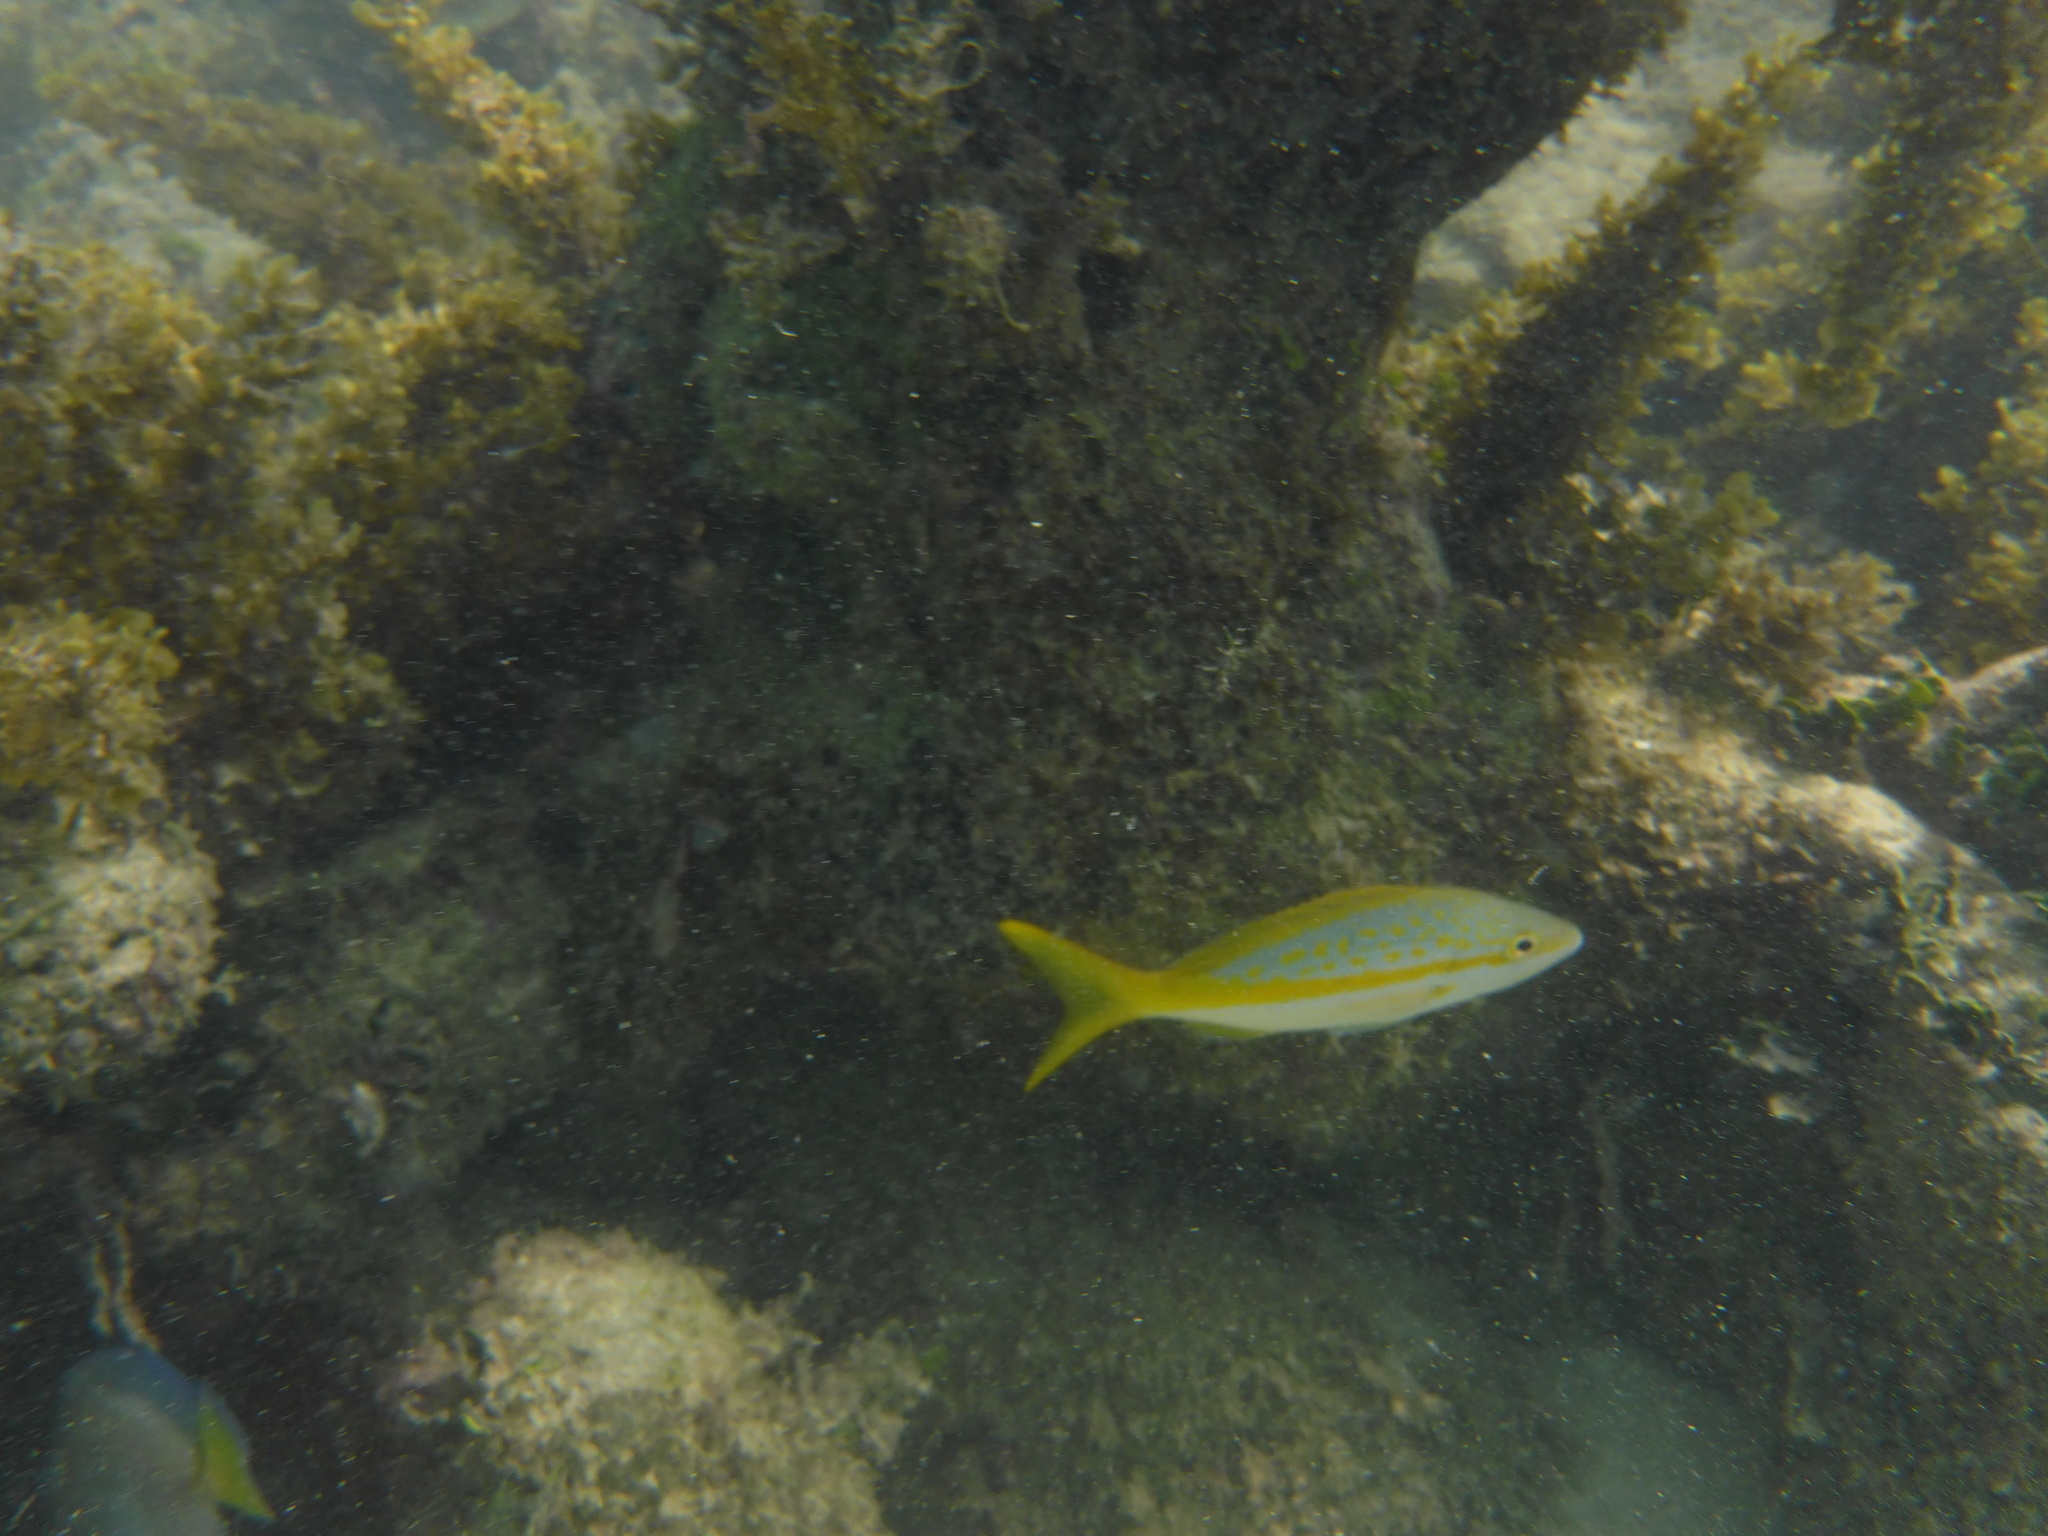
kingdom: Animalia
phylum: Chordata
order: Perciformes
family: Lutjanidae
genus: Ocyurus
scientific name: Ocyurus chrysurus
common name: Yellowtail snapper
